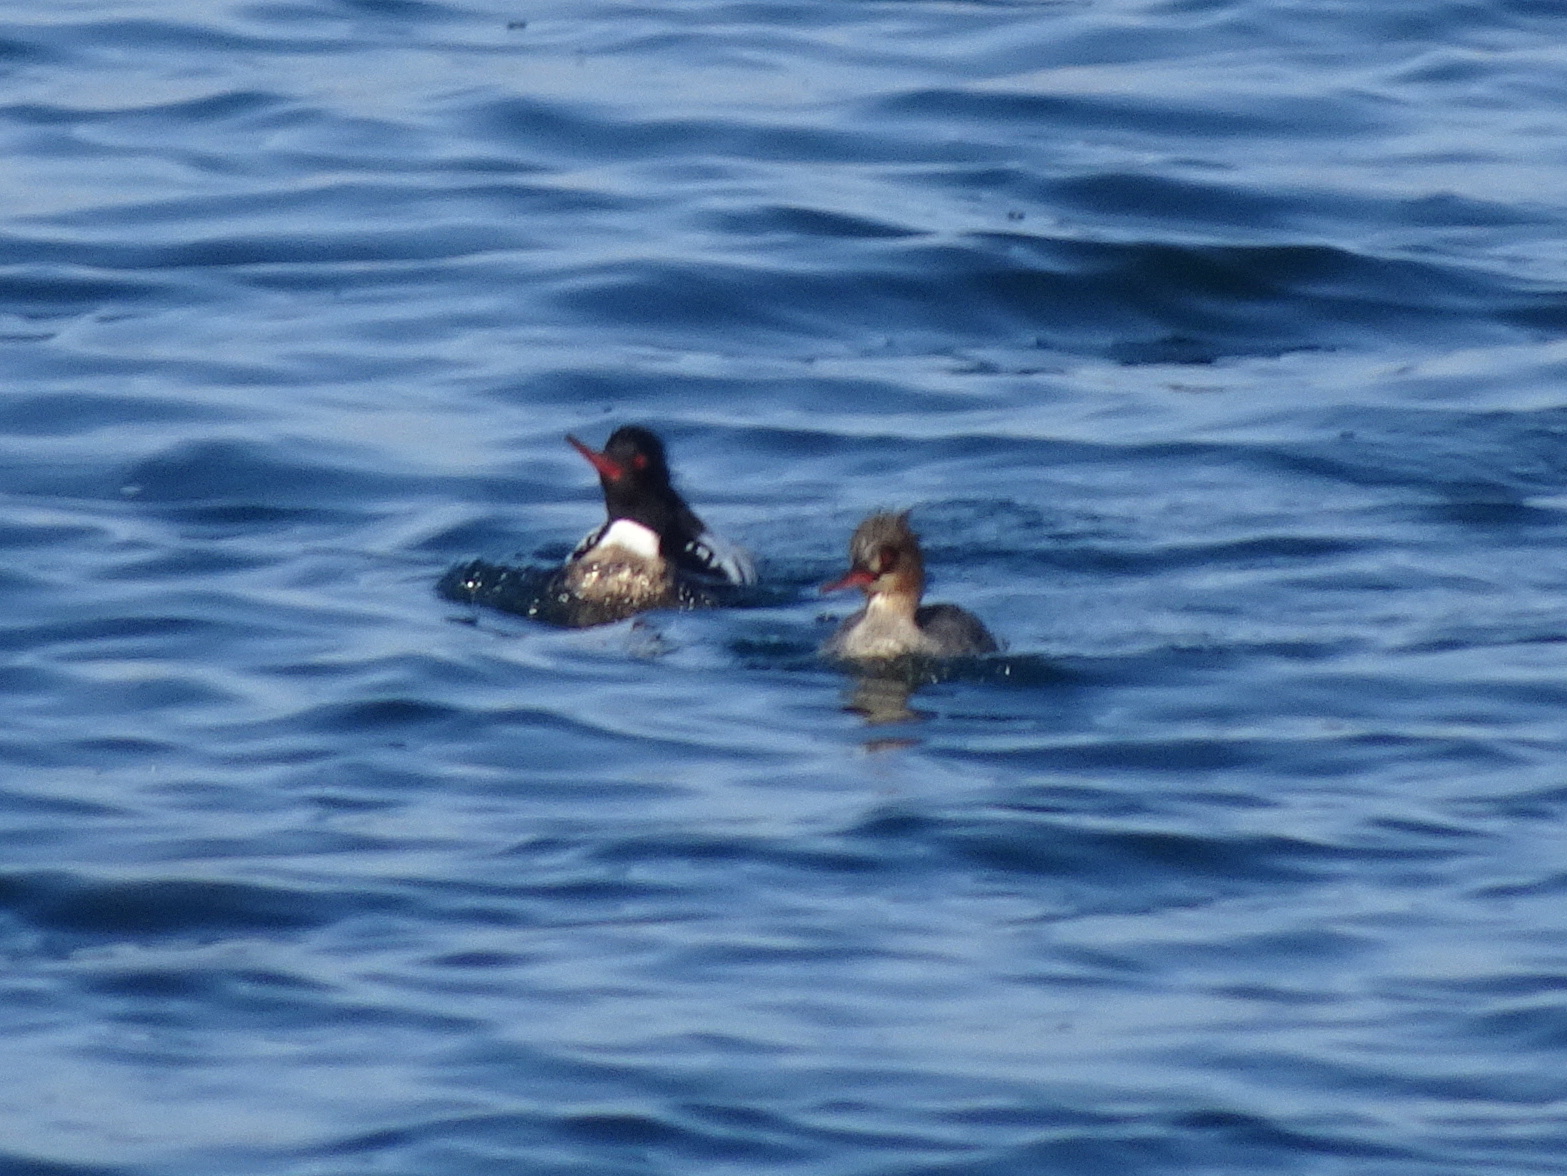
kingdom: Animalia
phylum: Chordata
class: Aves
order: Anseriformes
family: Anatidae
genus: Mergus
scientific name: Mergus serrator
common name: Red-breasted merganser
